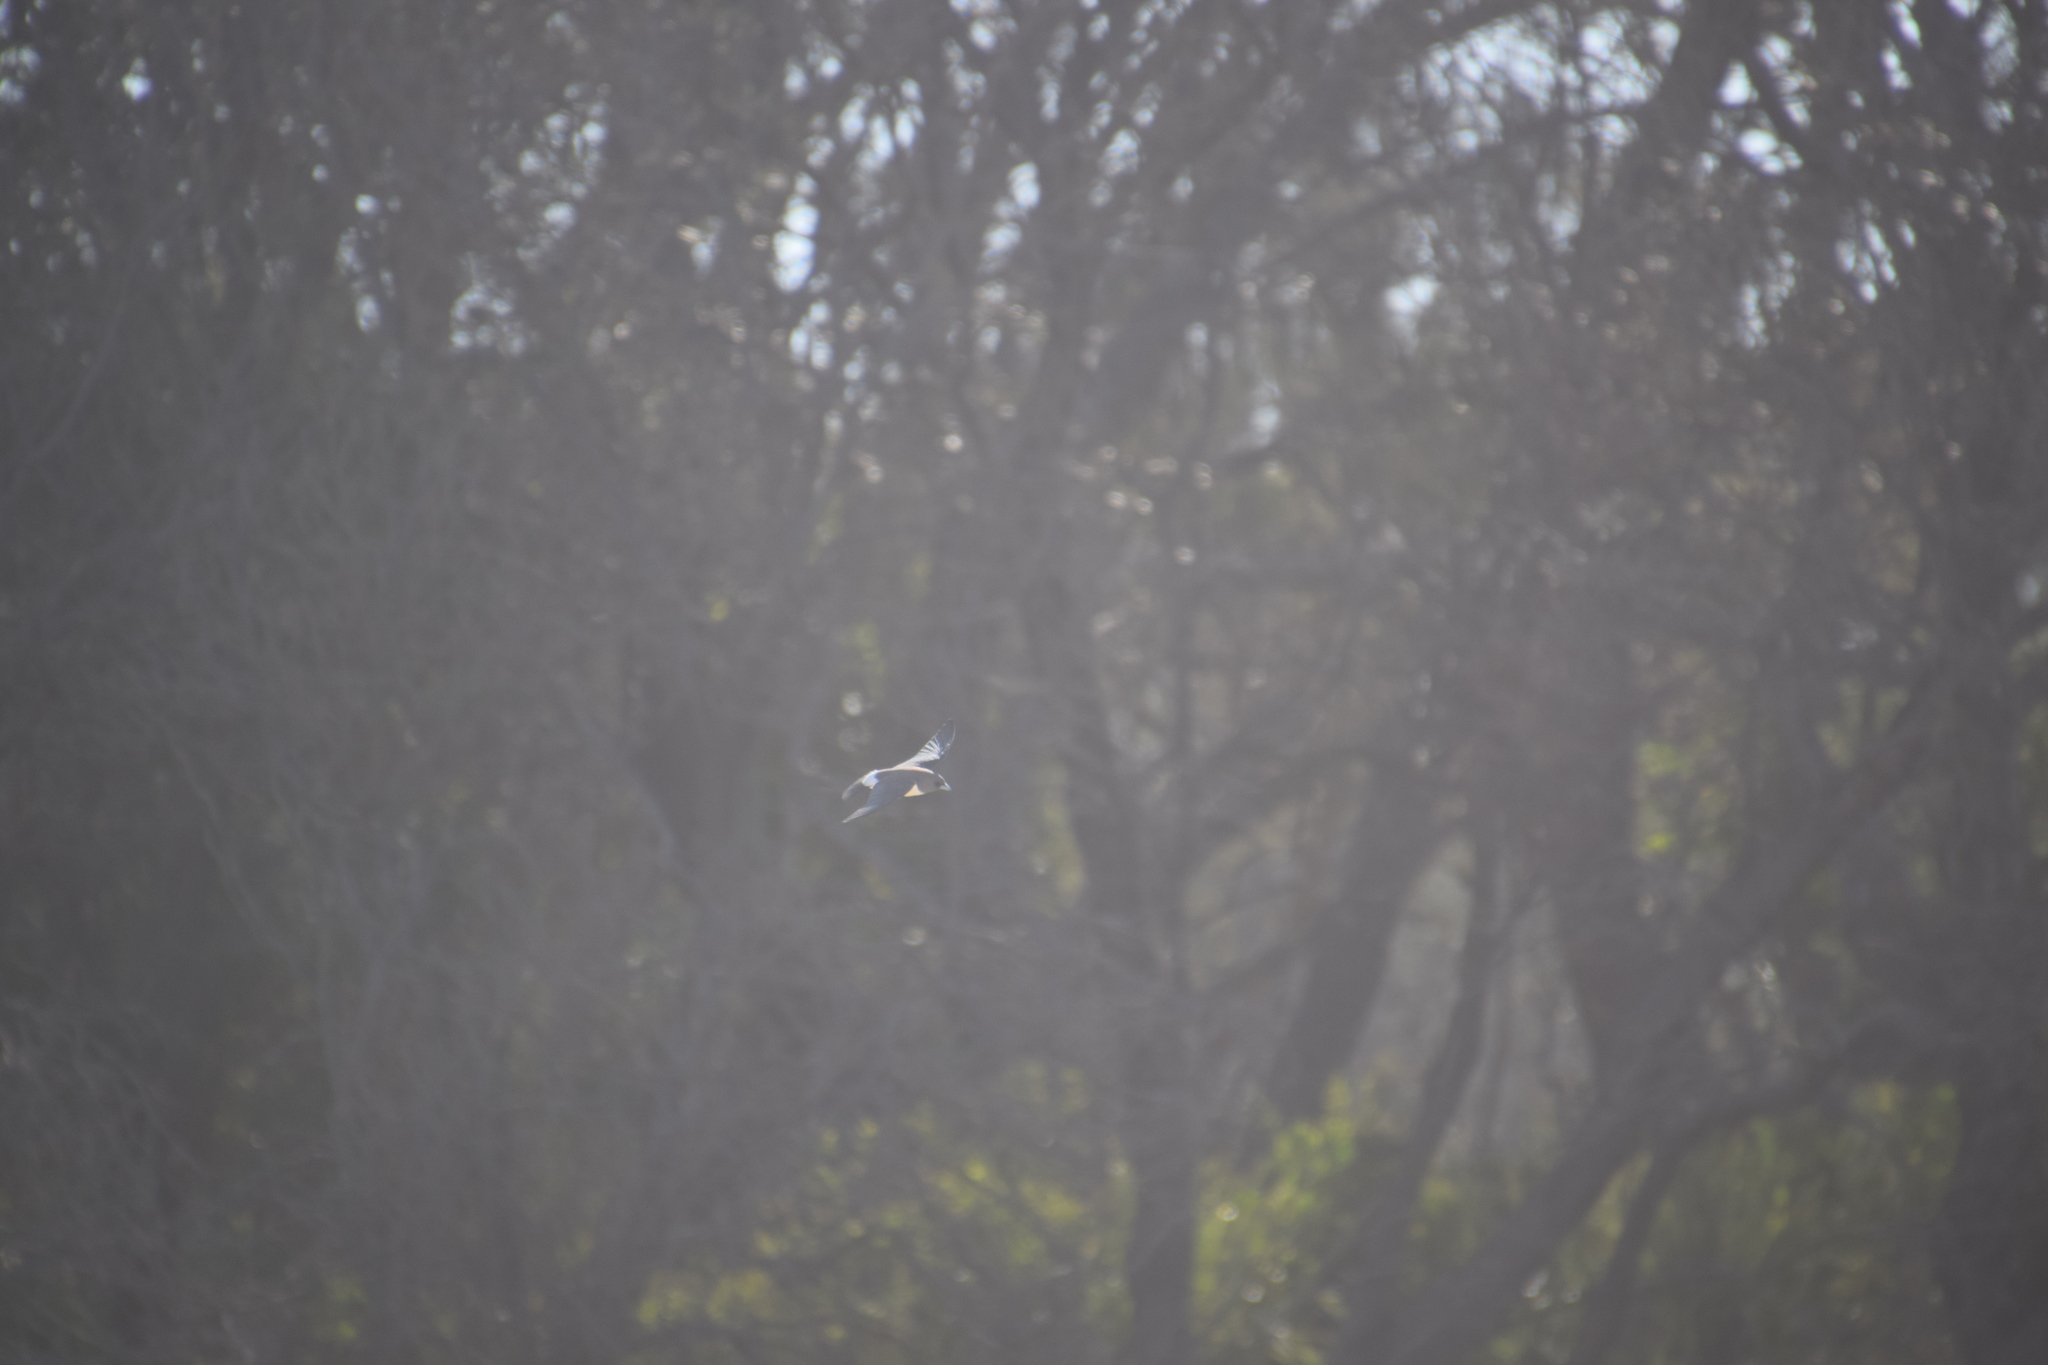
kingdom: Animalia
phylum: Chordata
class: Aves
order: Passeriformes
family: Artamidae
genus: Artamus
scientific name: Artamus leucoryn
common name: White-breasted woodswallow
